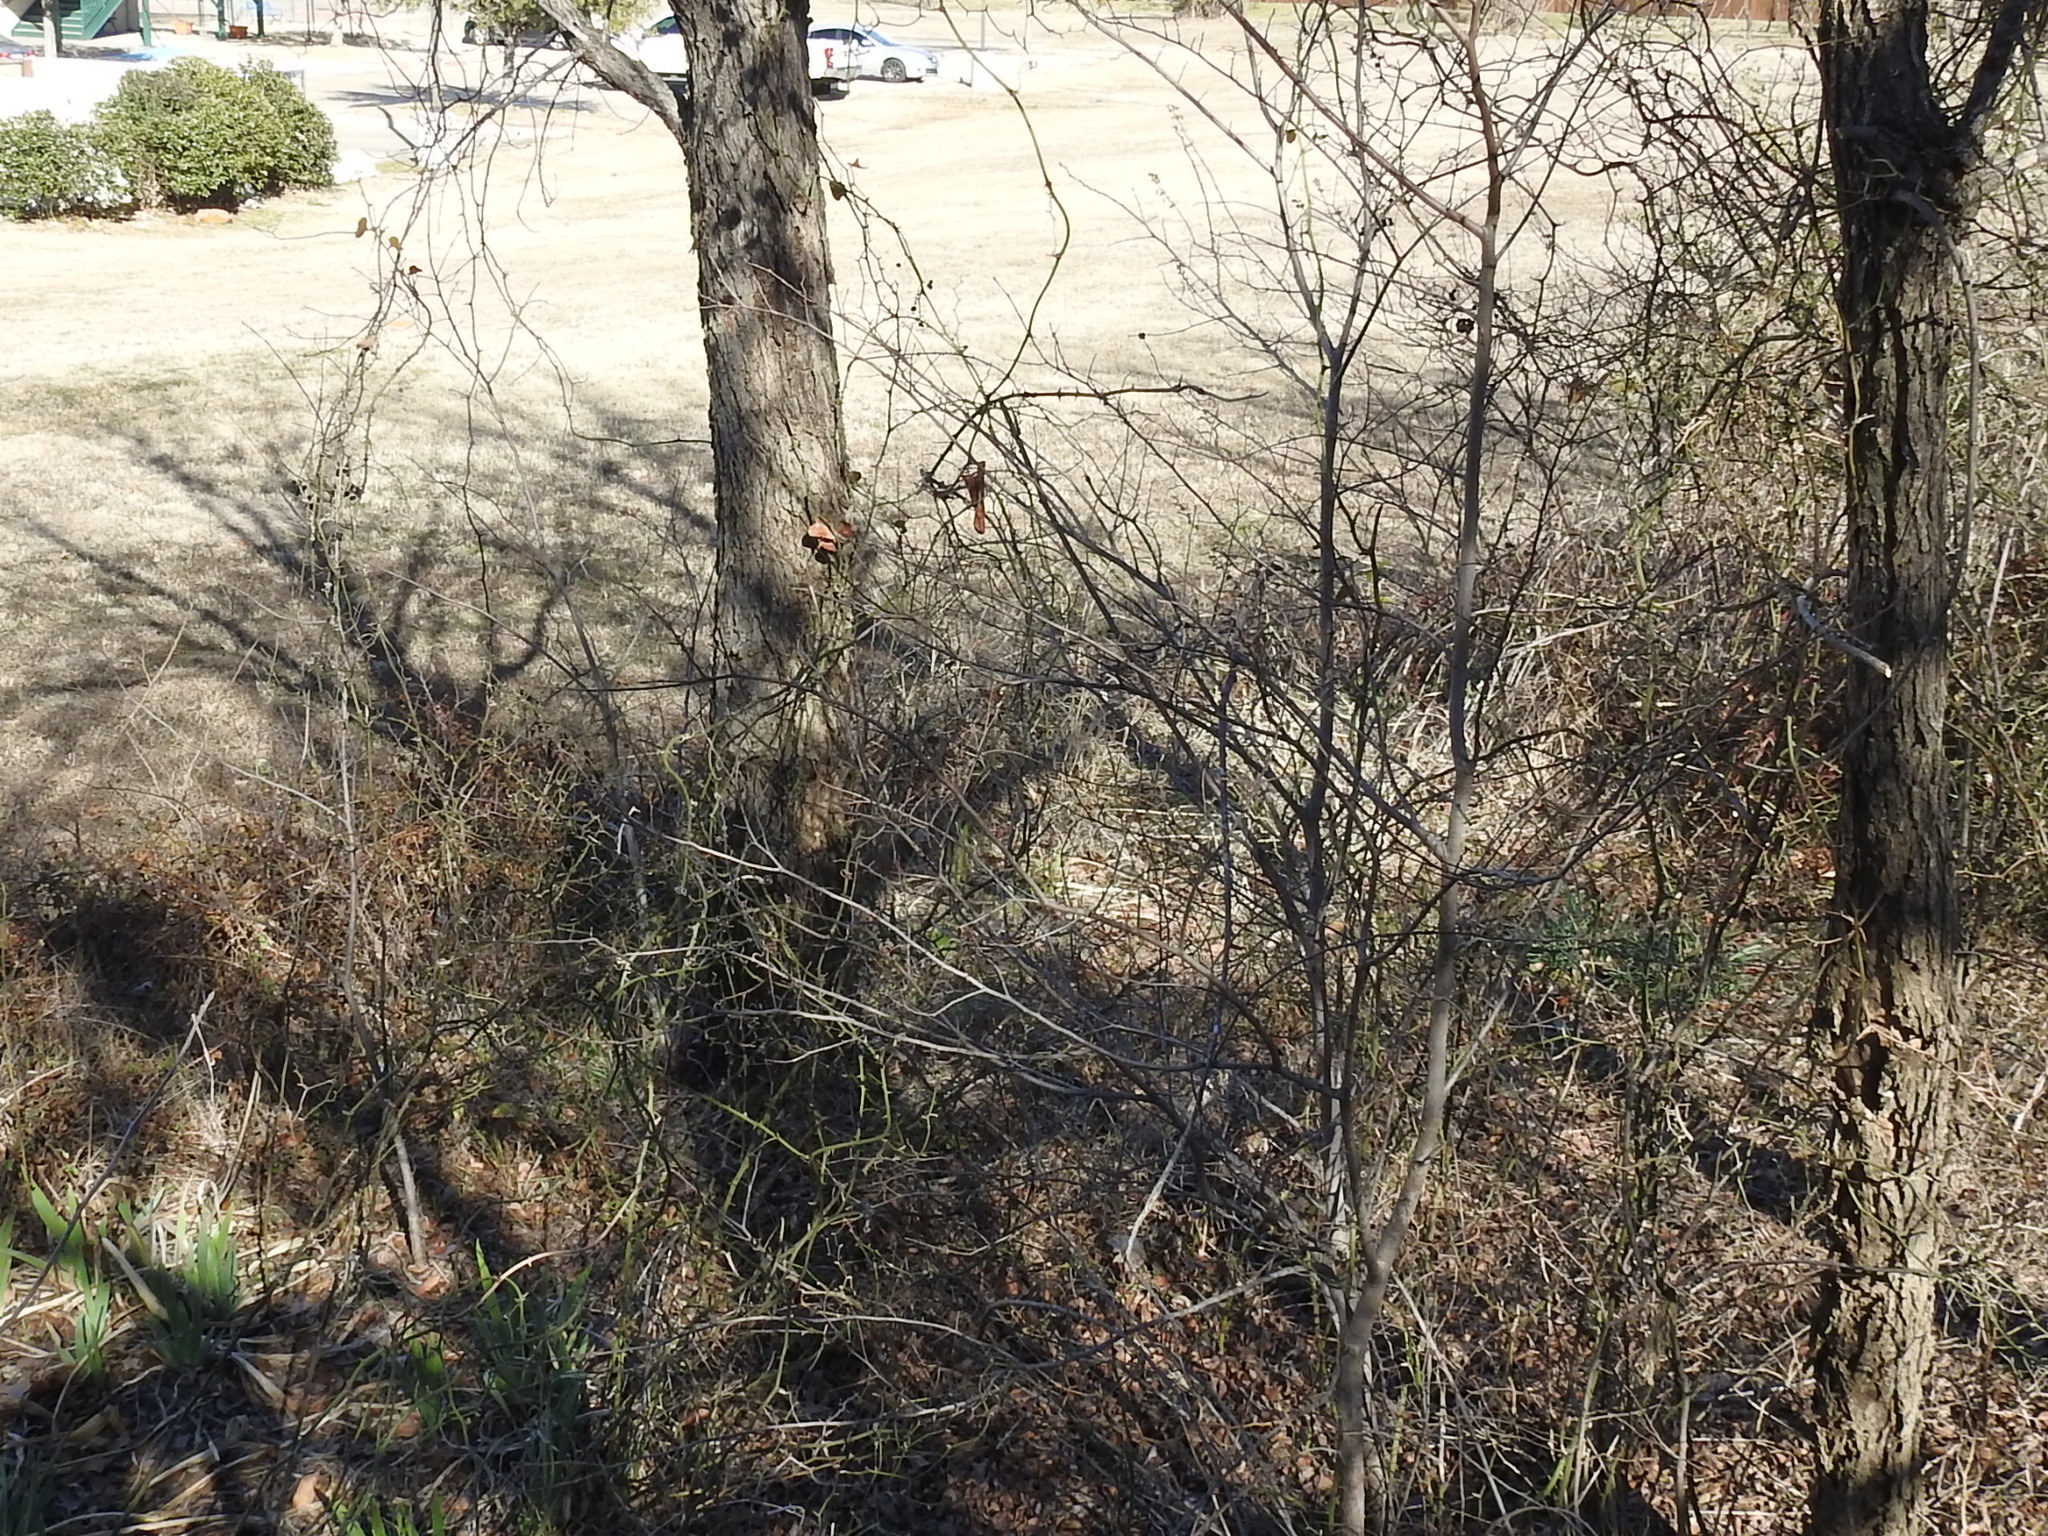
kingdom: Plantae
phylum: Tracheophyta
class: Liliopsida
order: Liliales
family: Smilacaceae
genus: Smilax
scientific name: Smilax bona-nox
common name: Catbrier
